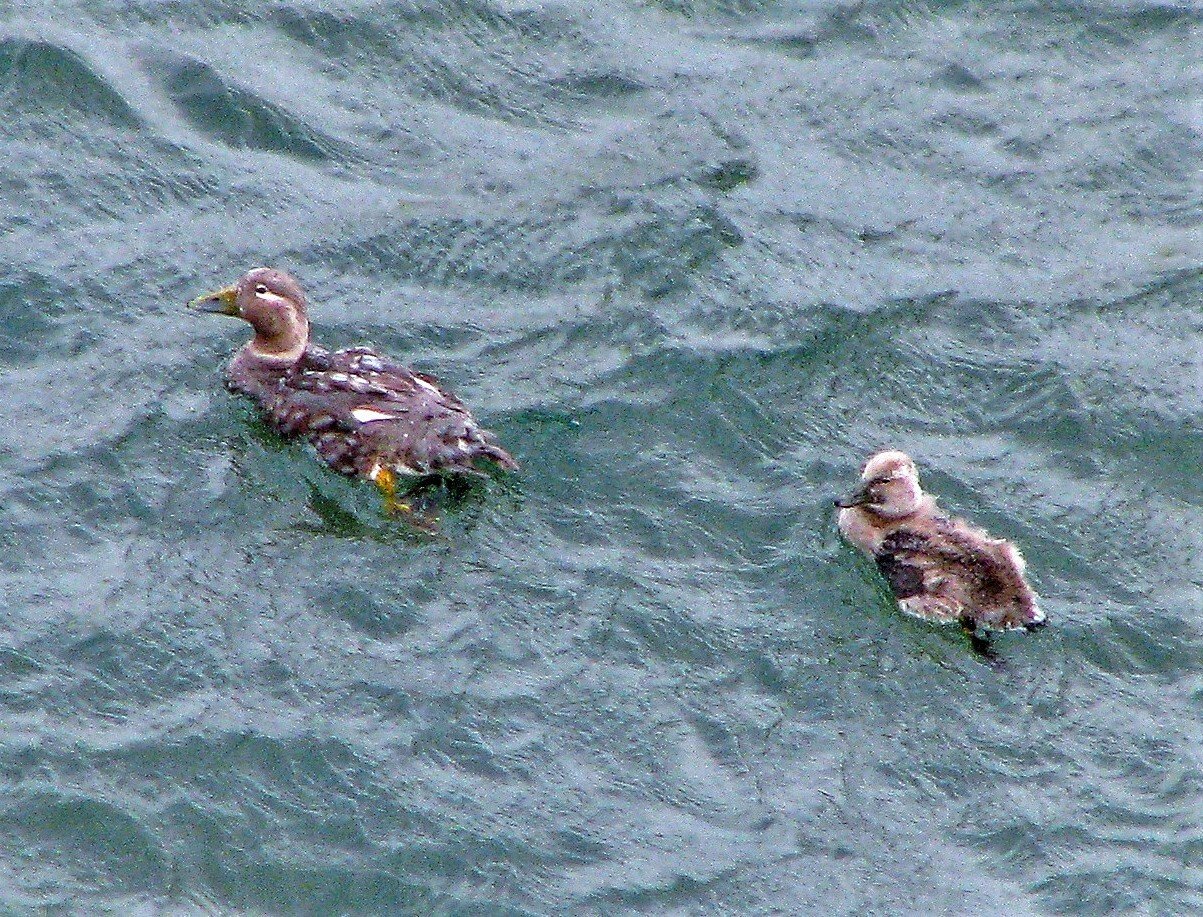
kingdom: Animalia
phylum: Chordata
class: Aves
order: Anseriformes
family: Anatidae
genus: Tachyeres
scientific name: Tachyeres patachonicus
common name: Flying steamer duck
